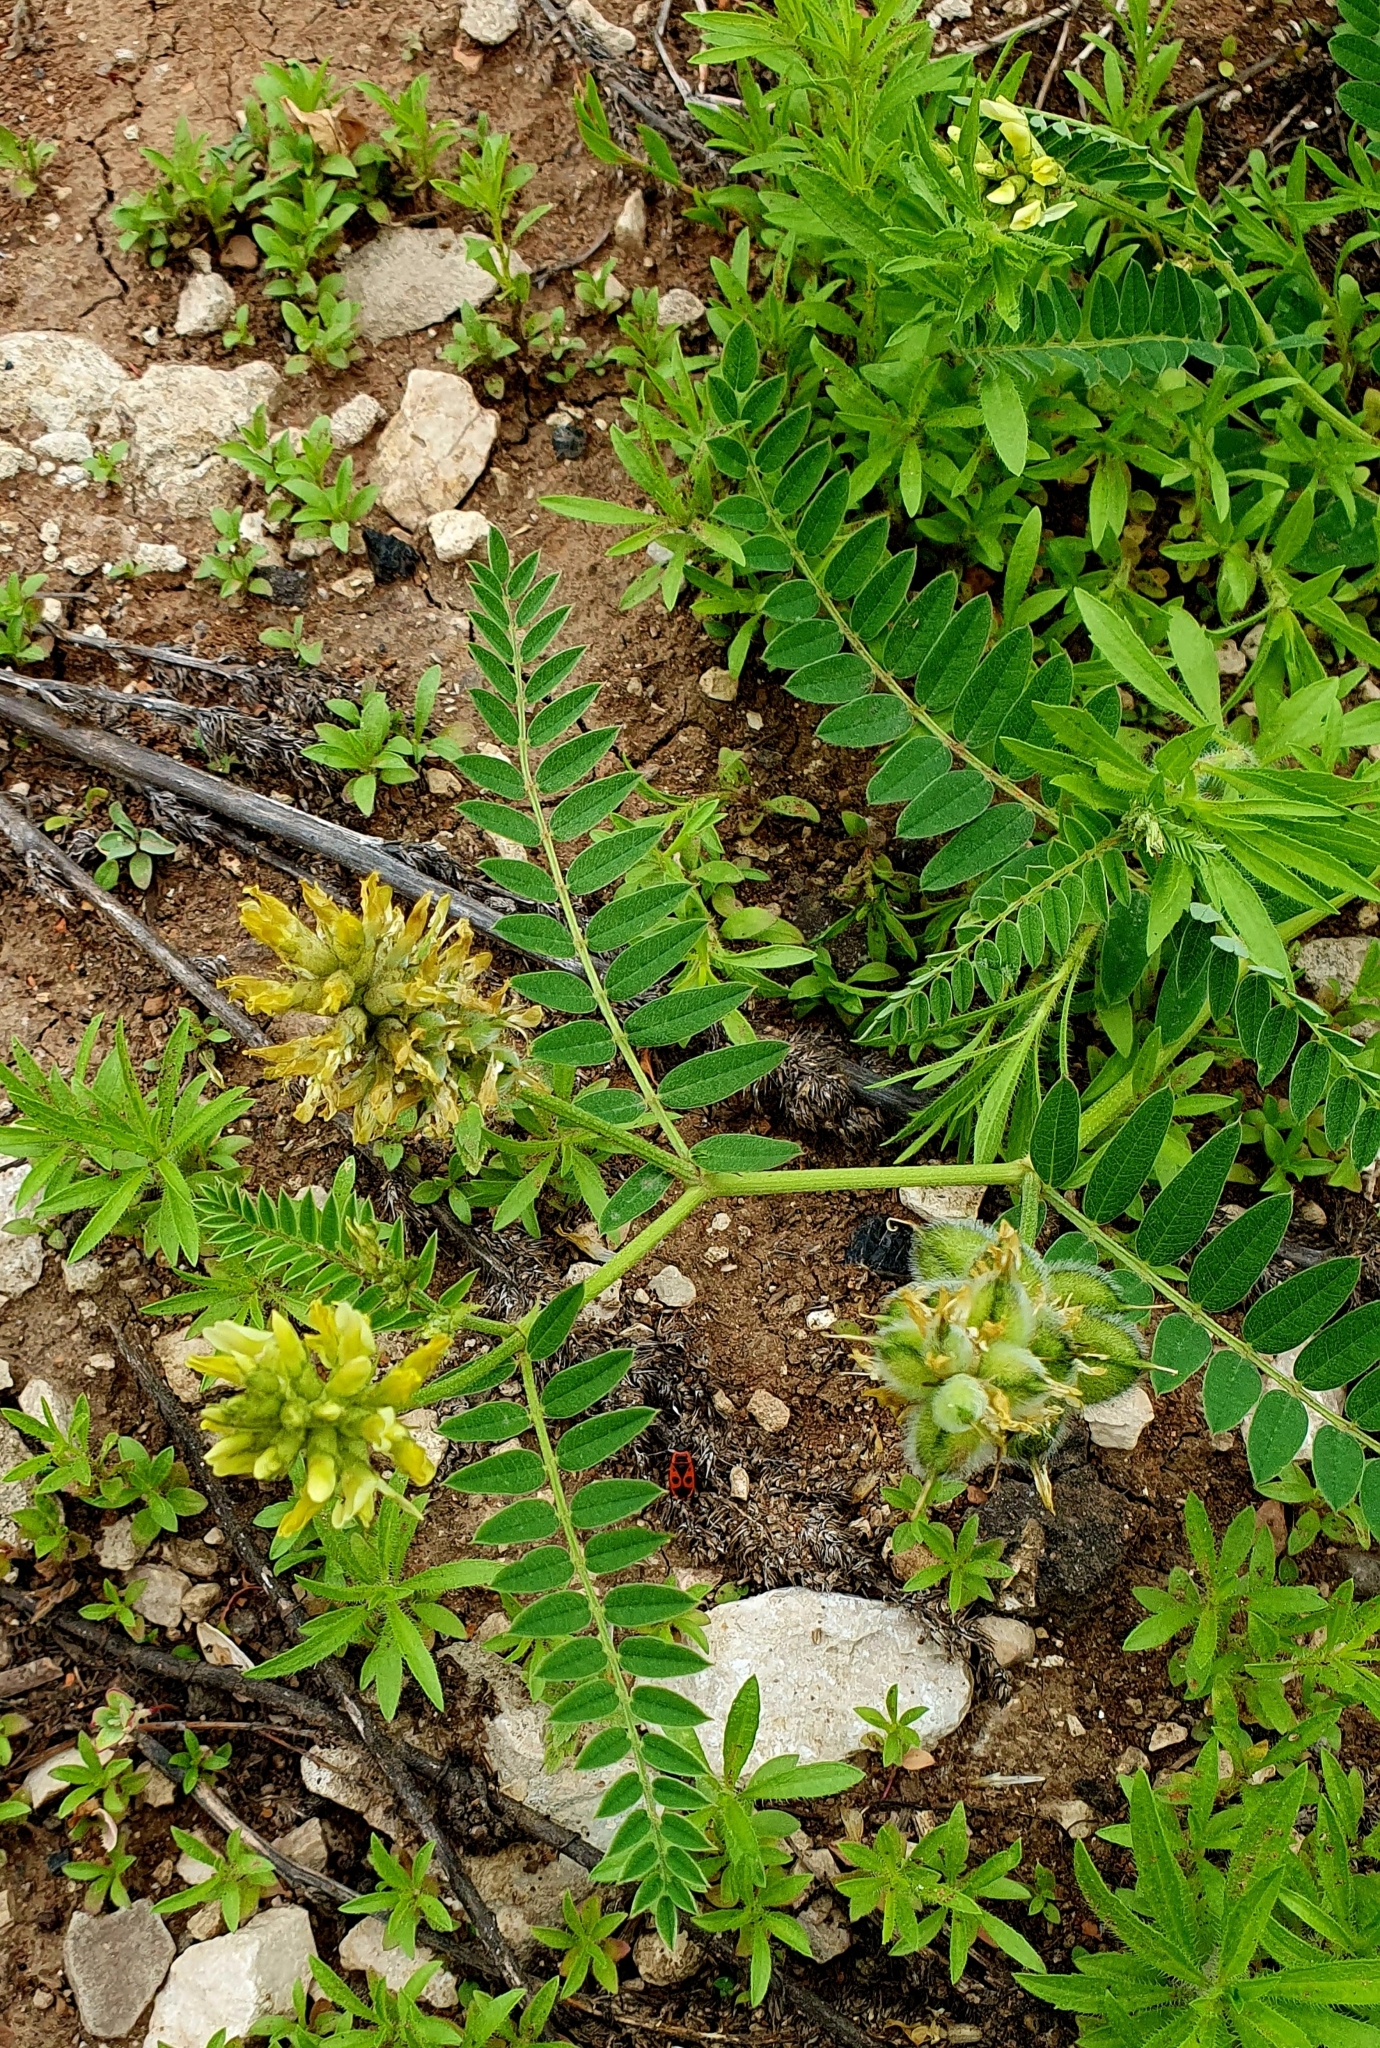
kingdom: Plantae
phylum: Tracheophyta
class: Magnoliopsida
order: Fabales
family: Fabaceae
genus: Astragalus
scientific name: Astragalus cicer
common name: Chick-pea milk-vetch
